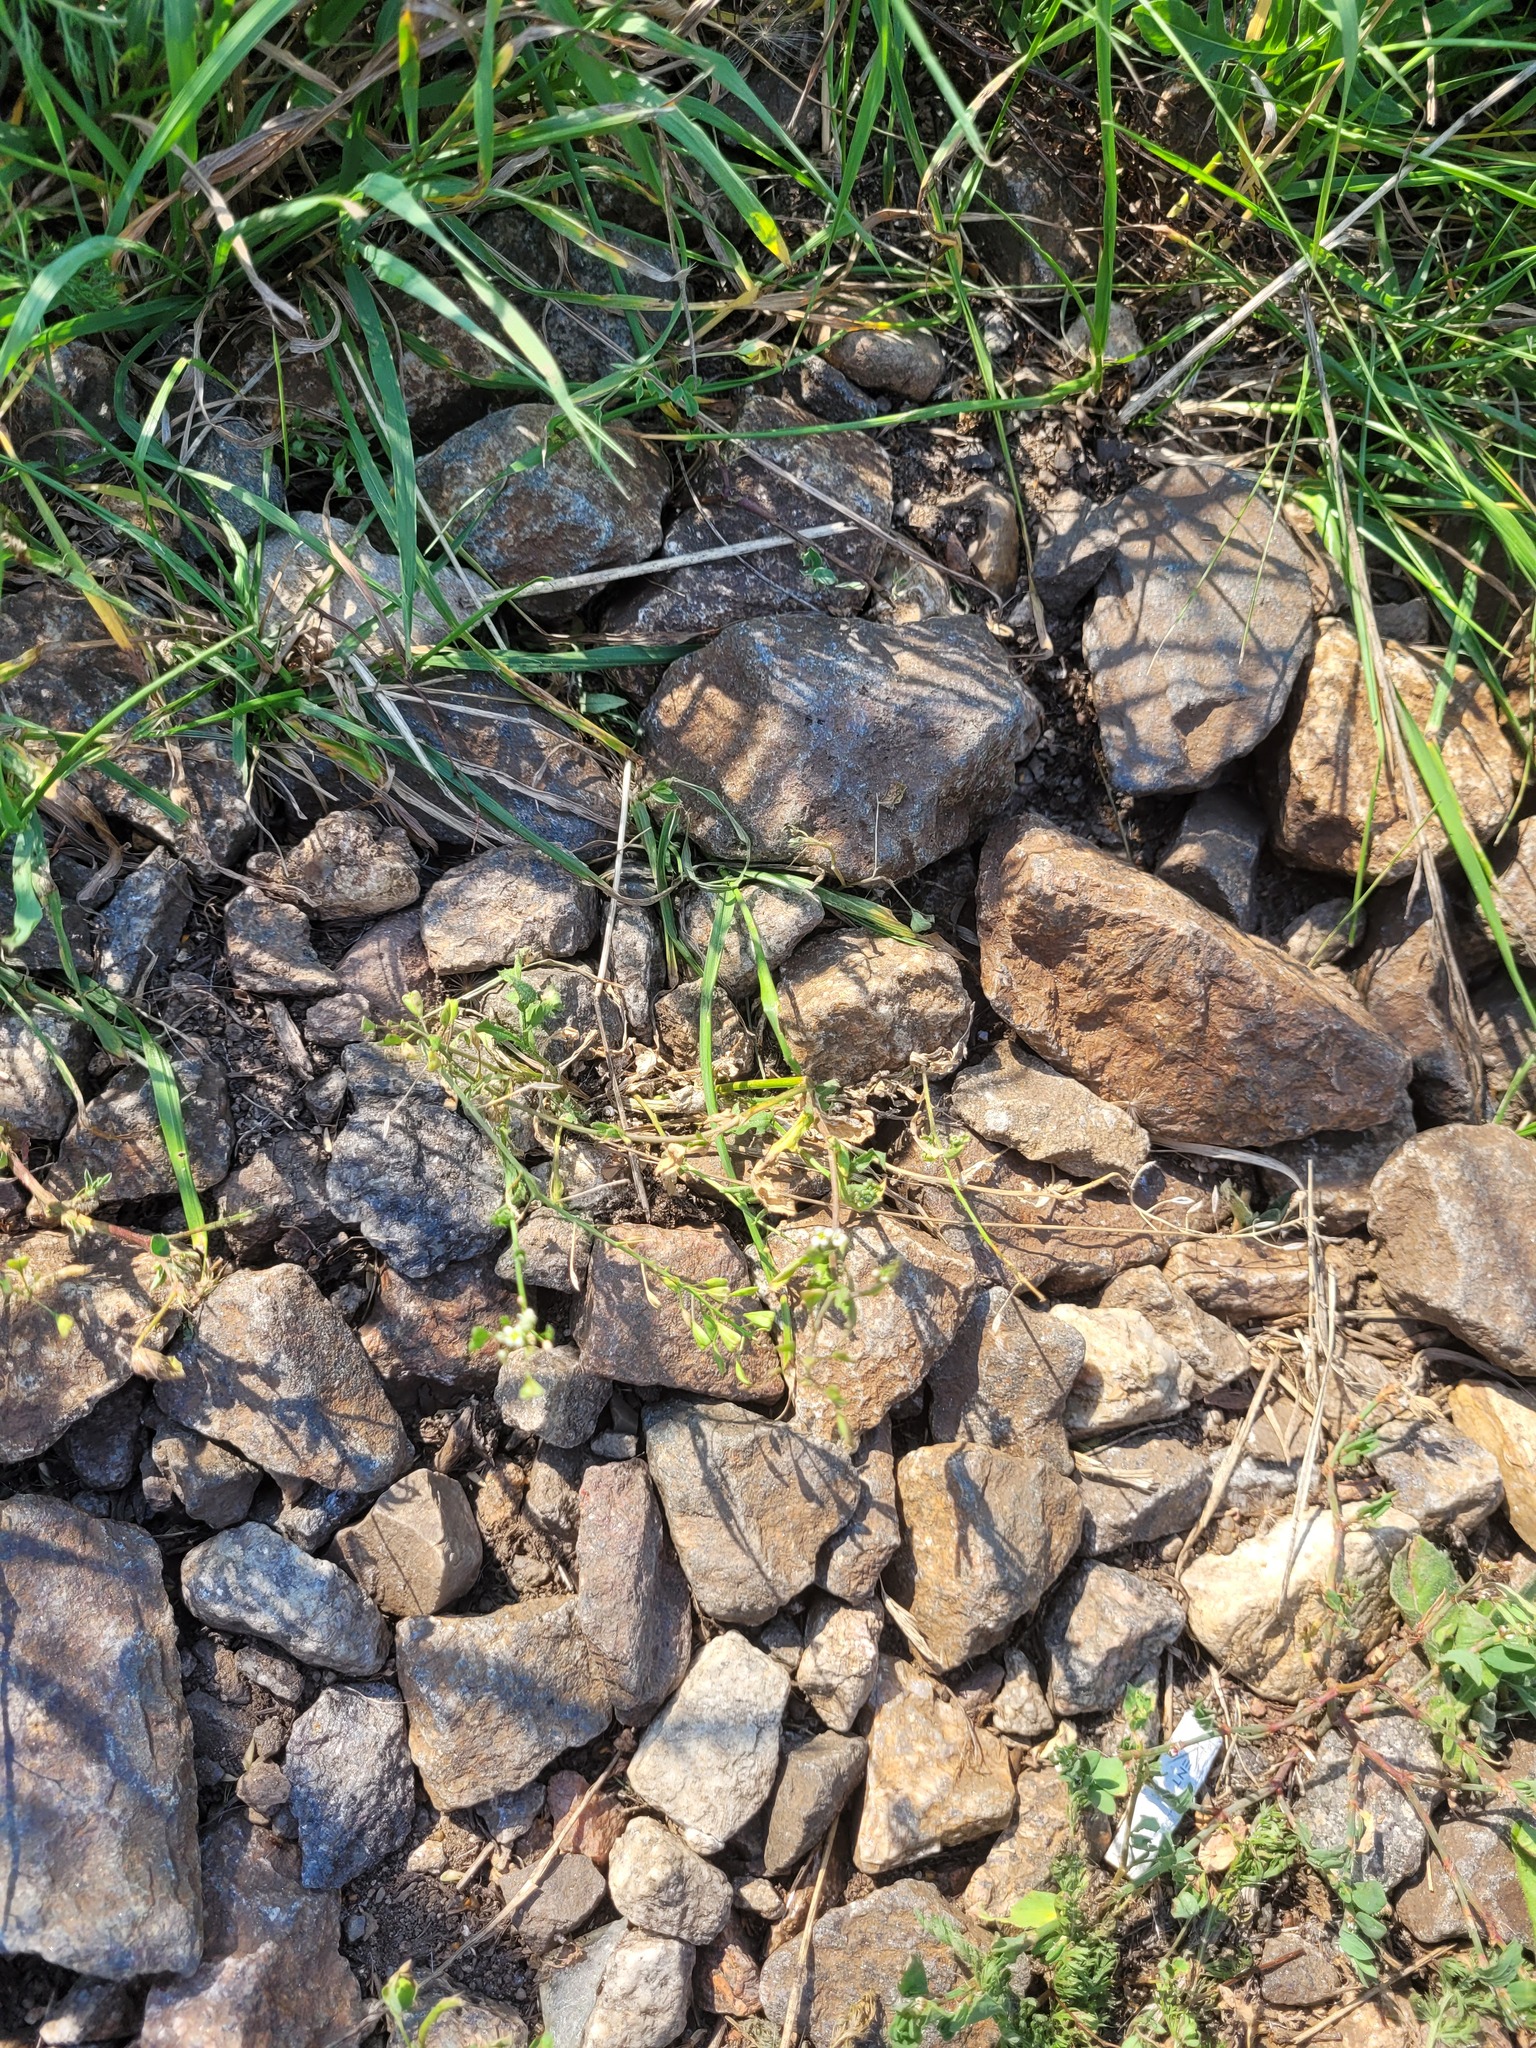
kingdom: Plantae
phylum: Tracheophyta
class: Magnoliopsida
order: Brassicales
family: Brassicaceae
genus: Capsella
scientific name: Capsella bursa-pastoris
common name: Shepherd's purse
